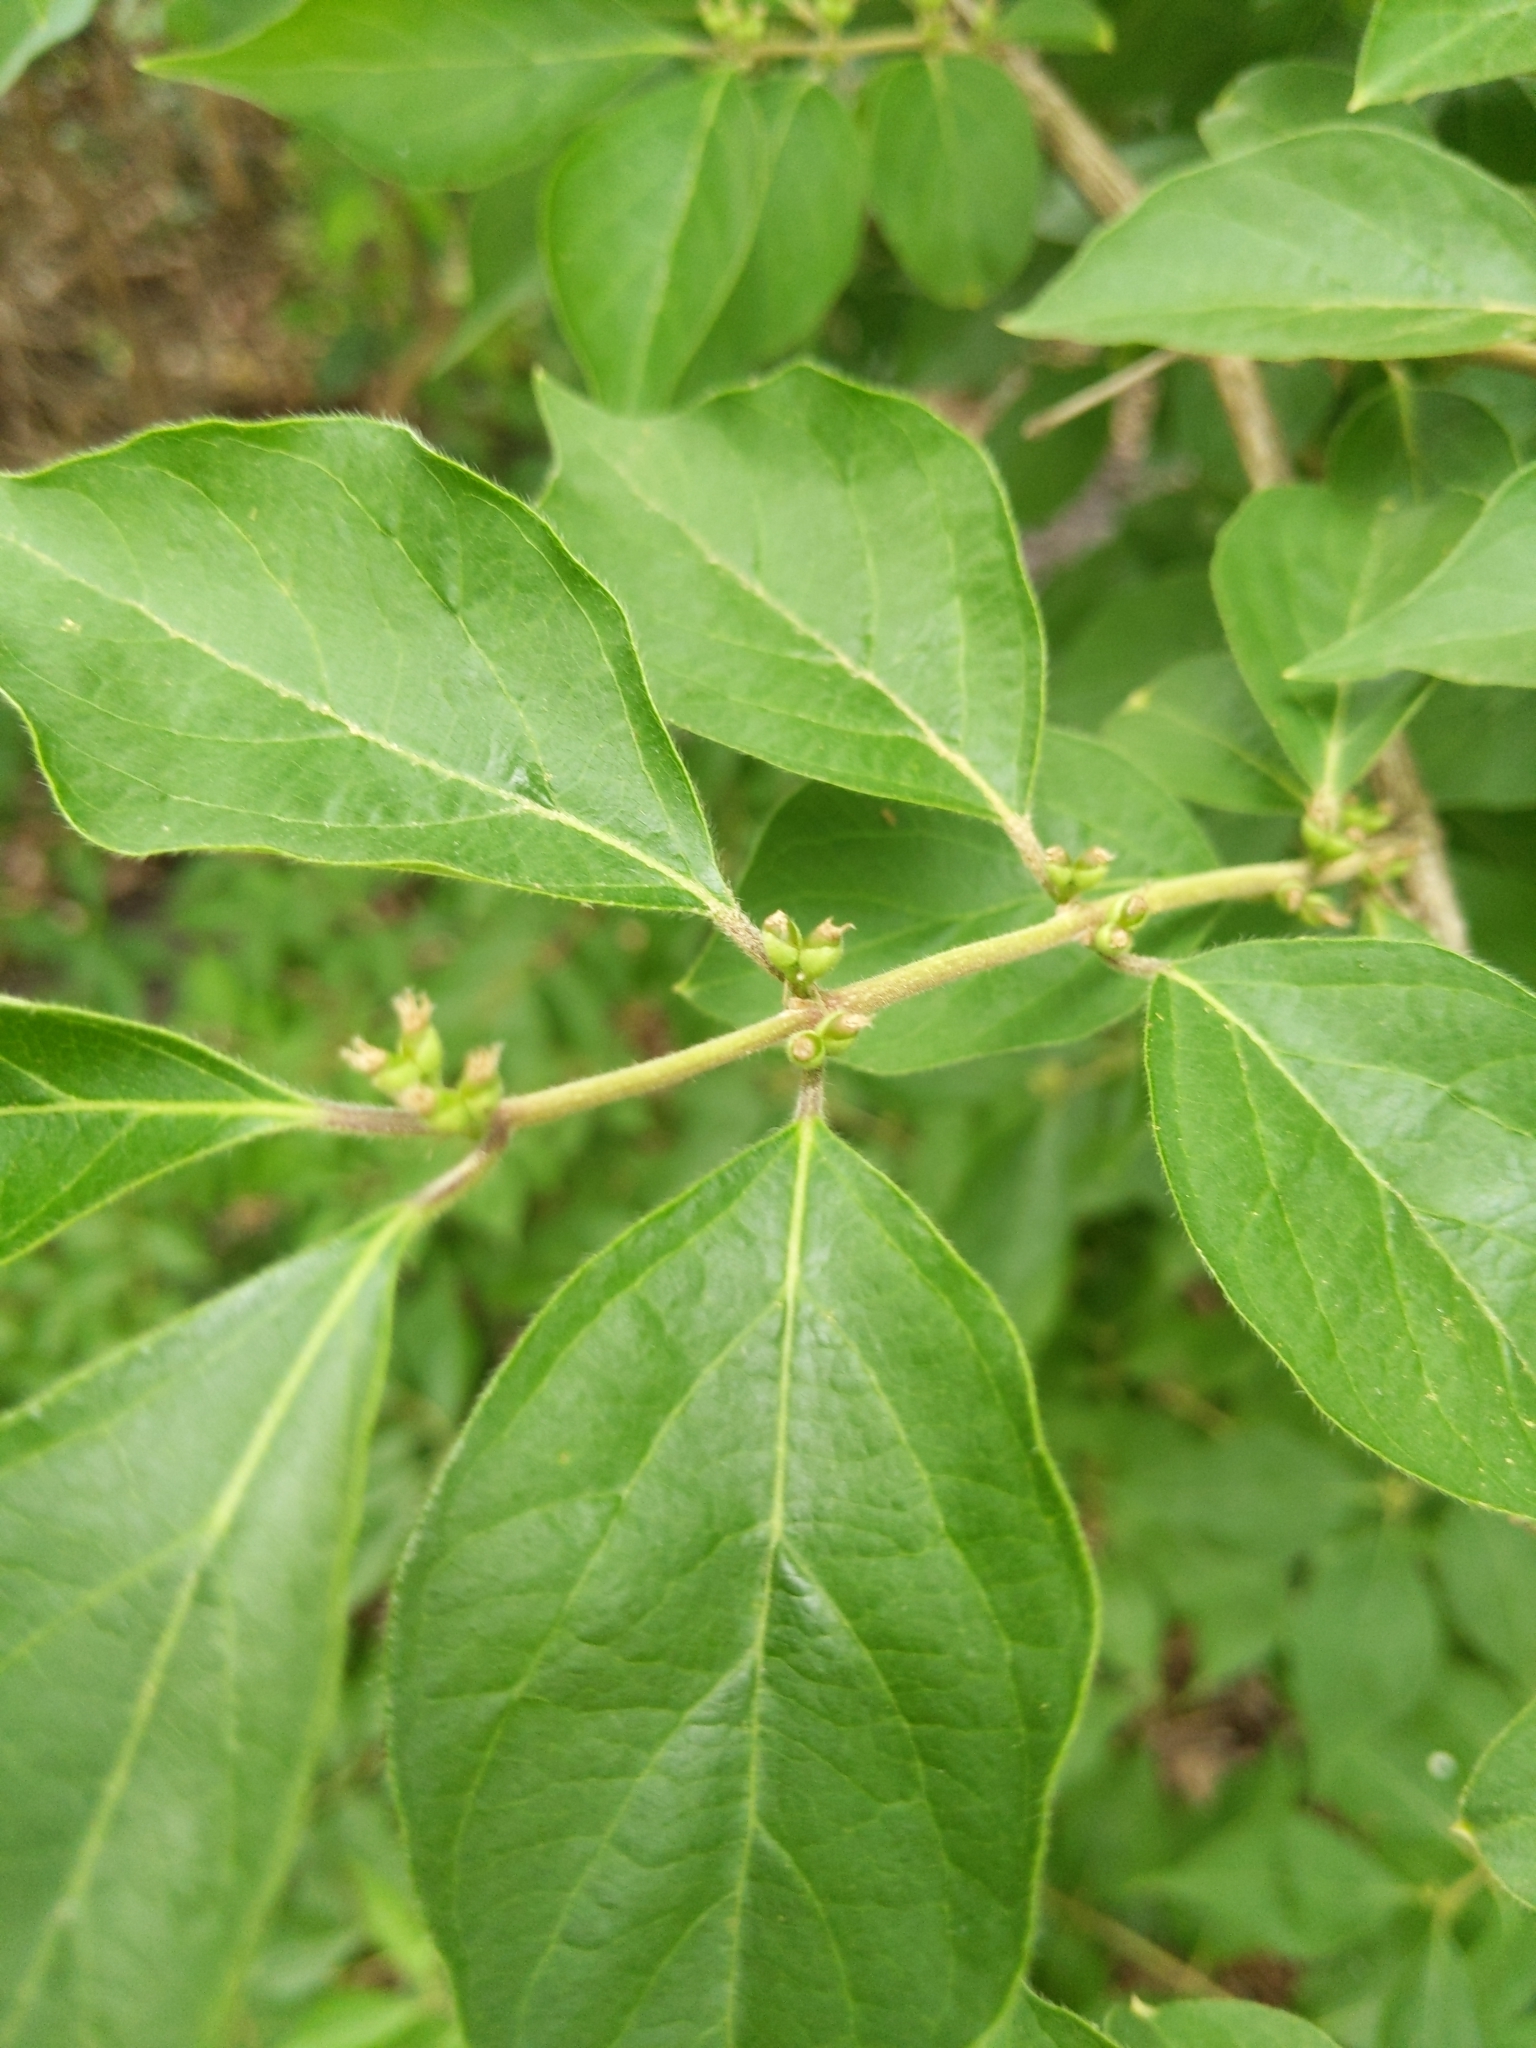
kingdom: Plantae
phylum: Tracheophyta
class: Magnoliopsida
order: Dipsacales
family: Caprifoliaceae
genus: Lonicera
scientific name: Lonicera maackii
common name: Amur honeysuckle
